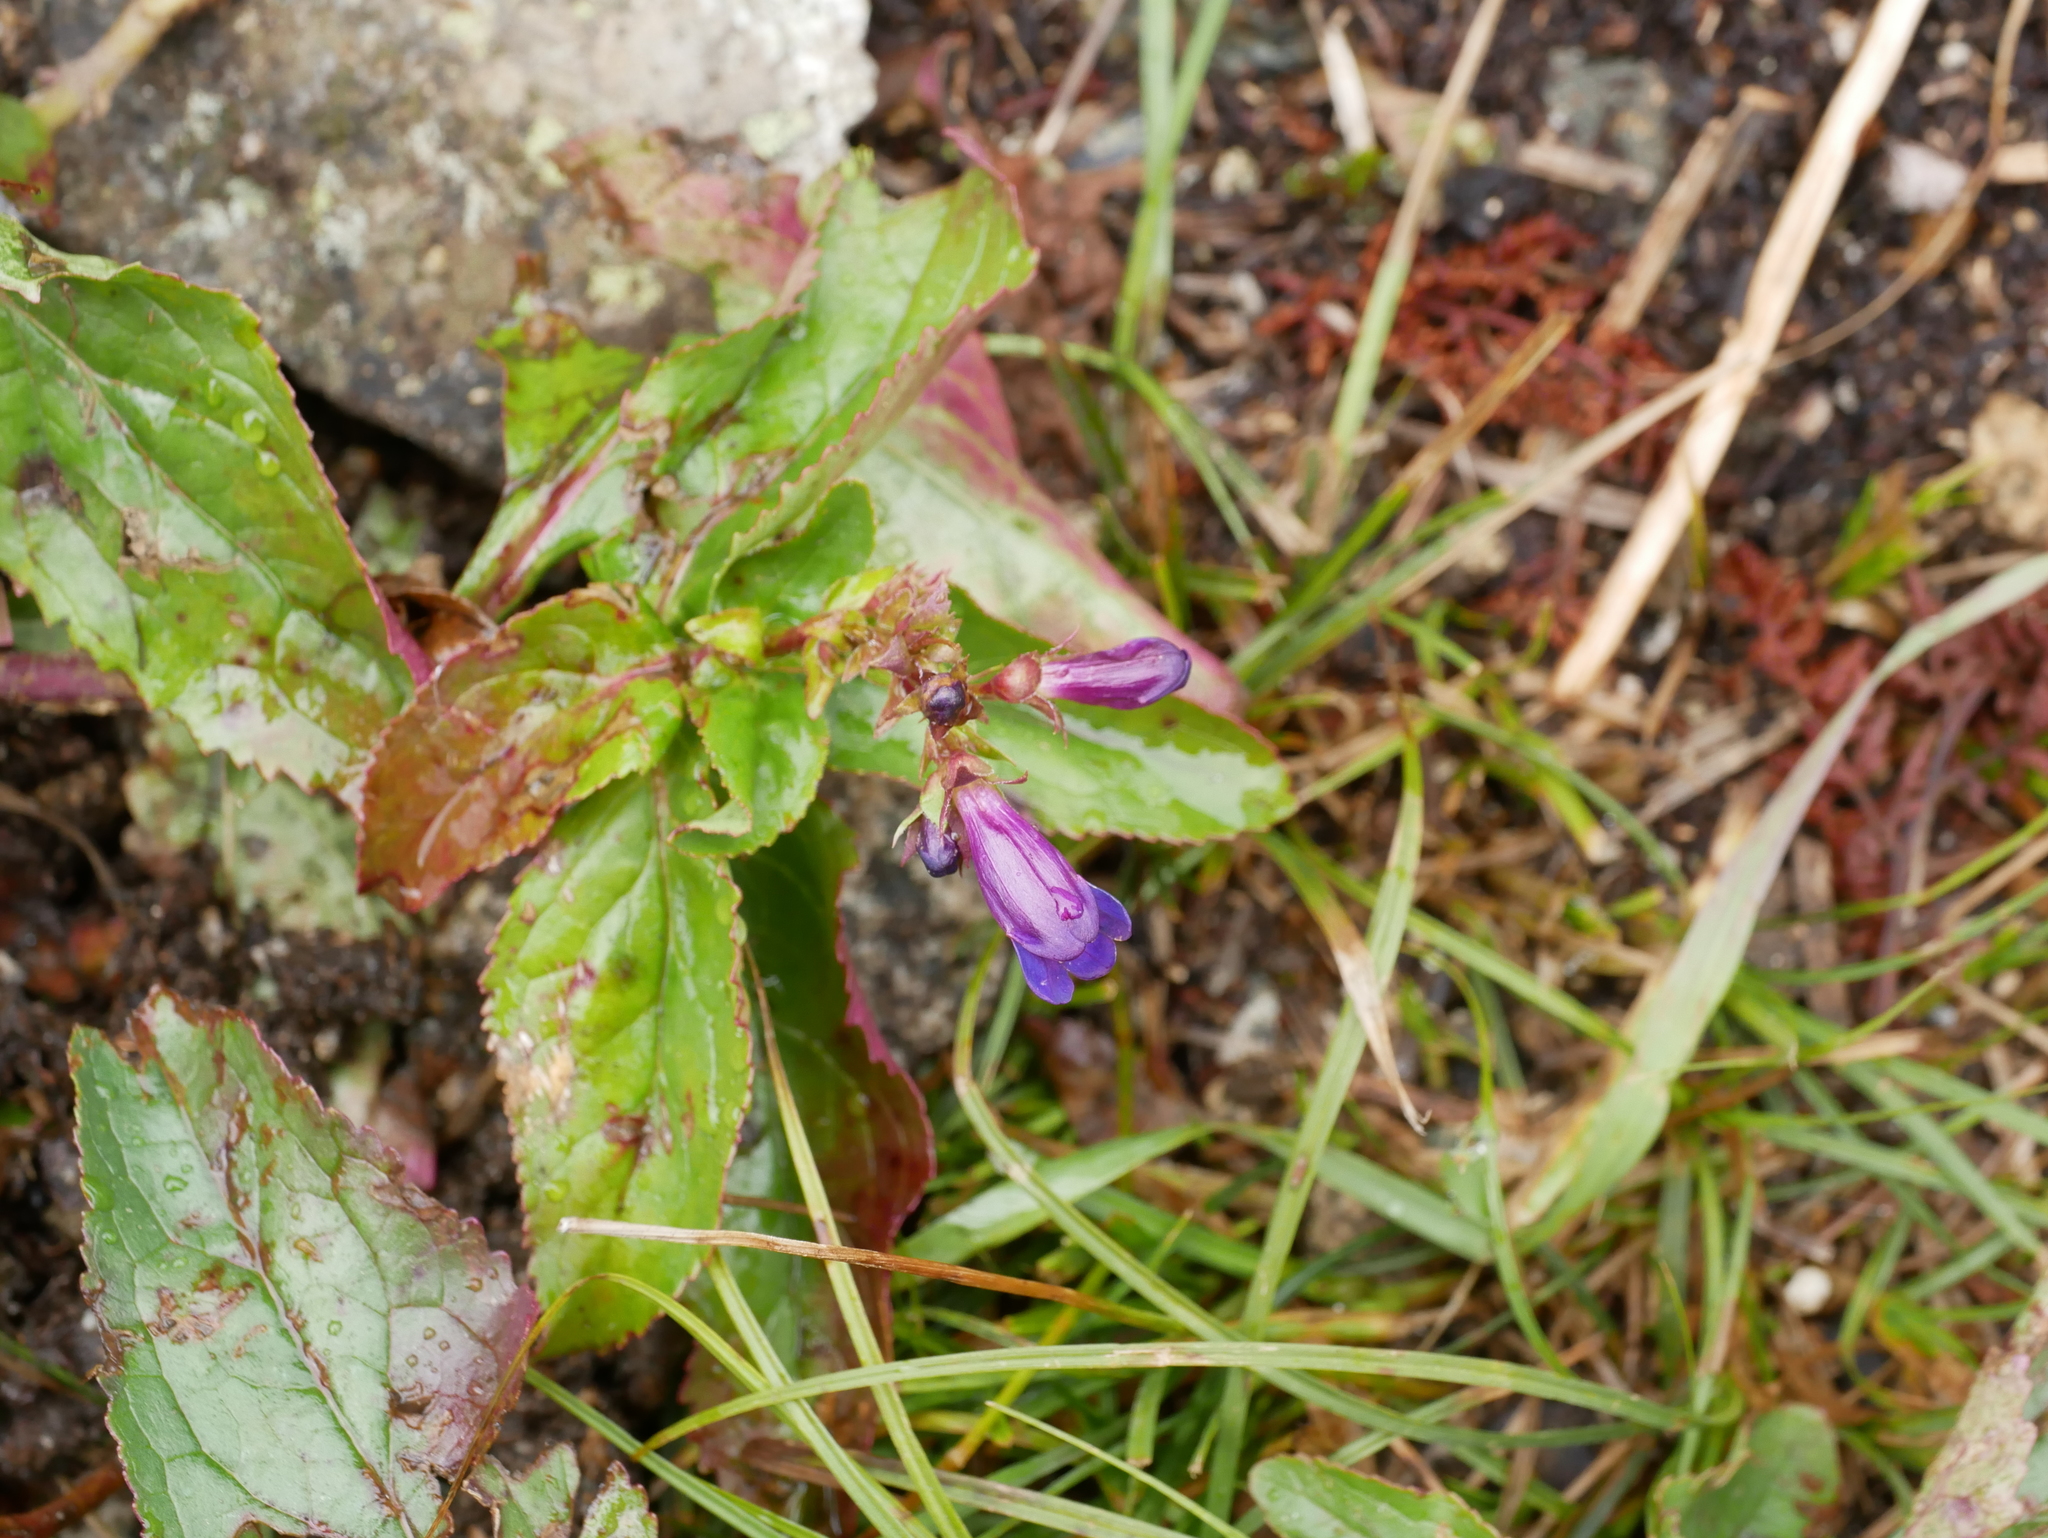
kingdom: Plantae
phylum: Tracheophyta
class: Magnoliopsida
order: Lamiales
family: Plantaginaceae
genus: Penstemon
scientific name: Penstemon serrulatus
